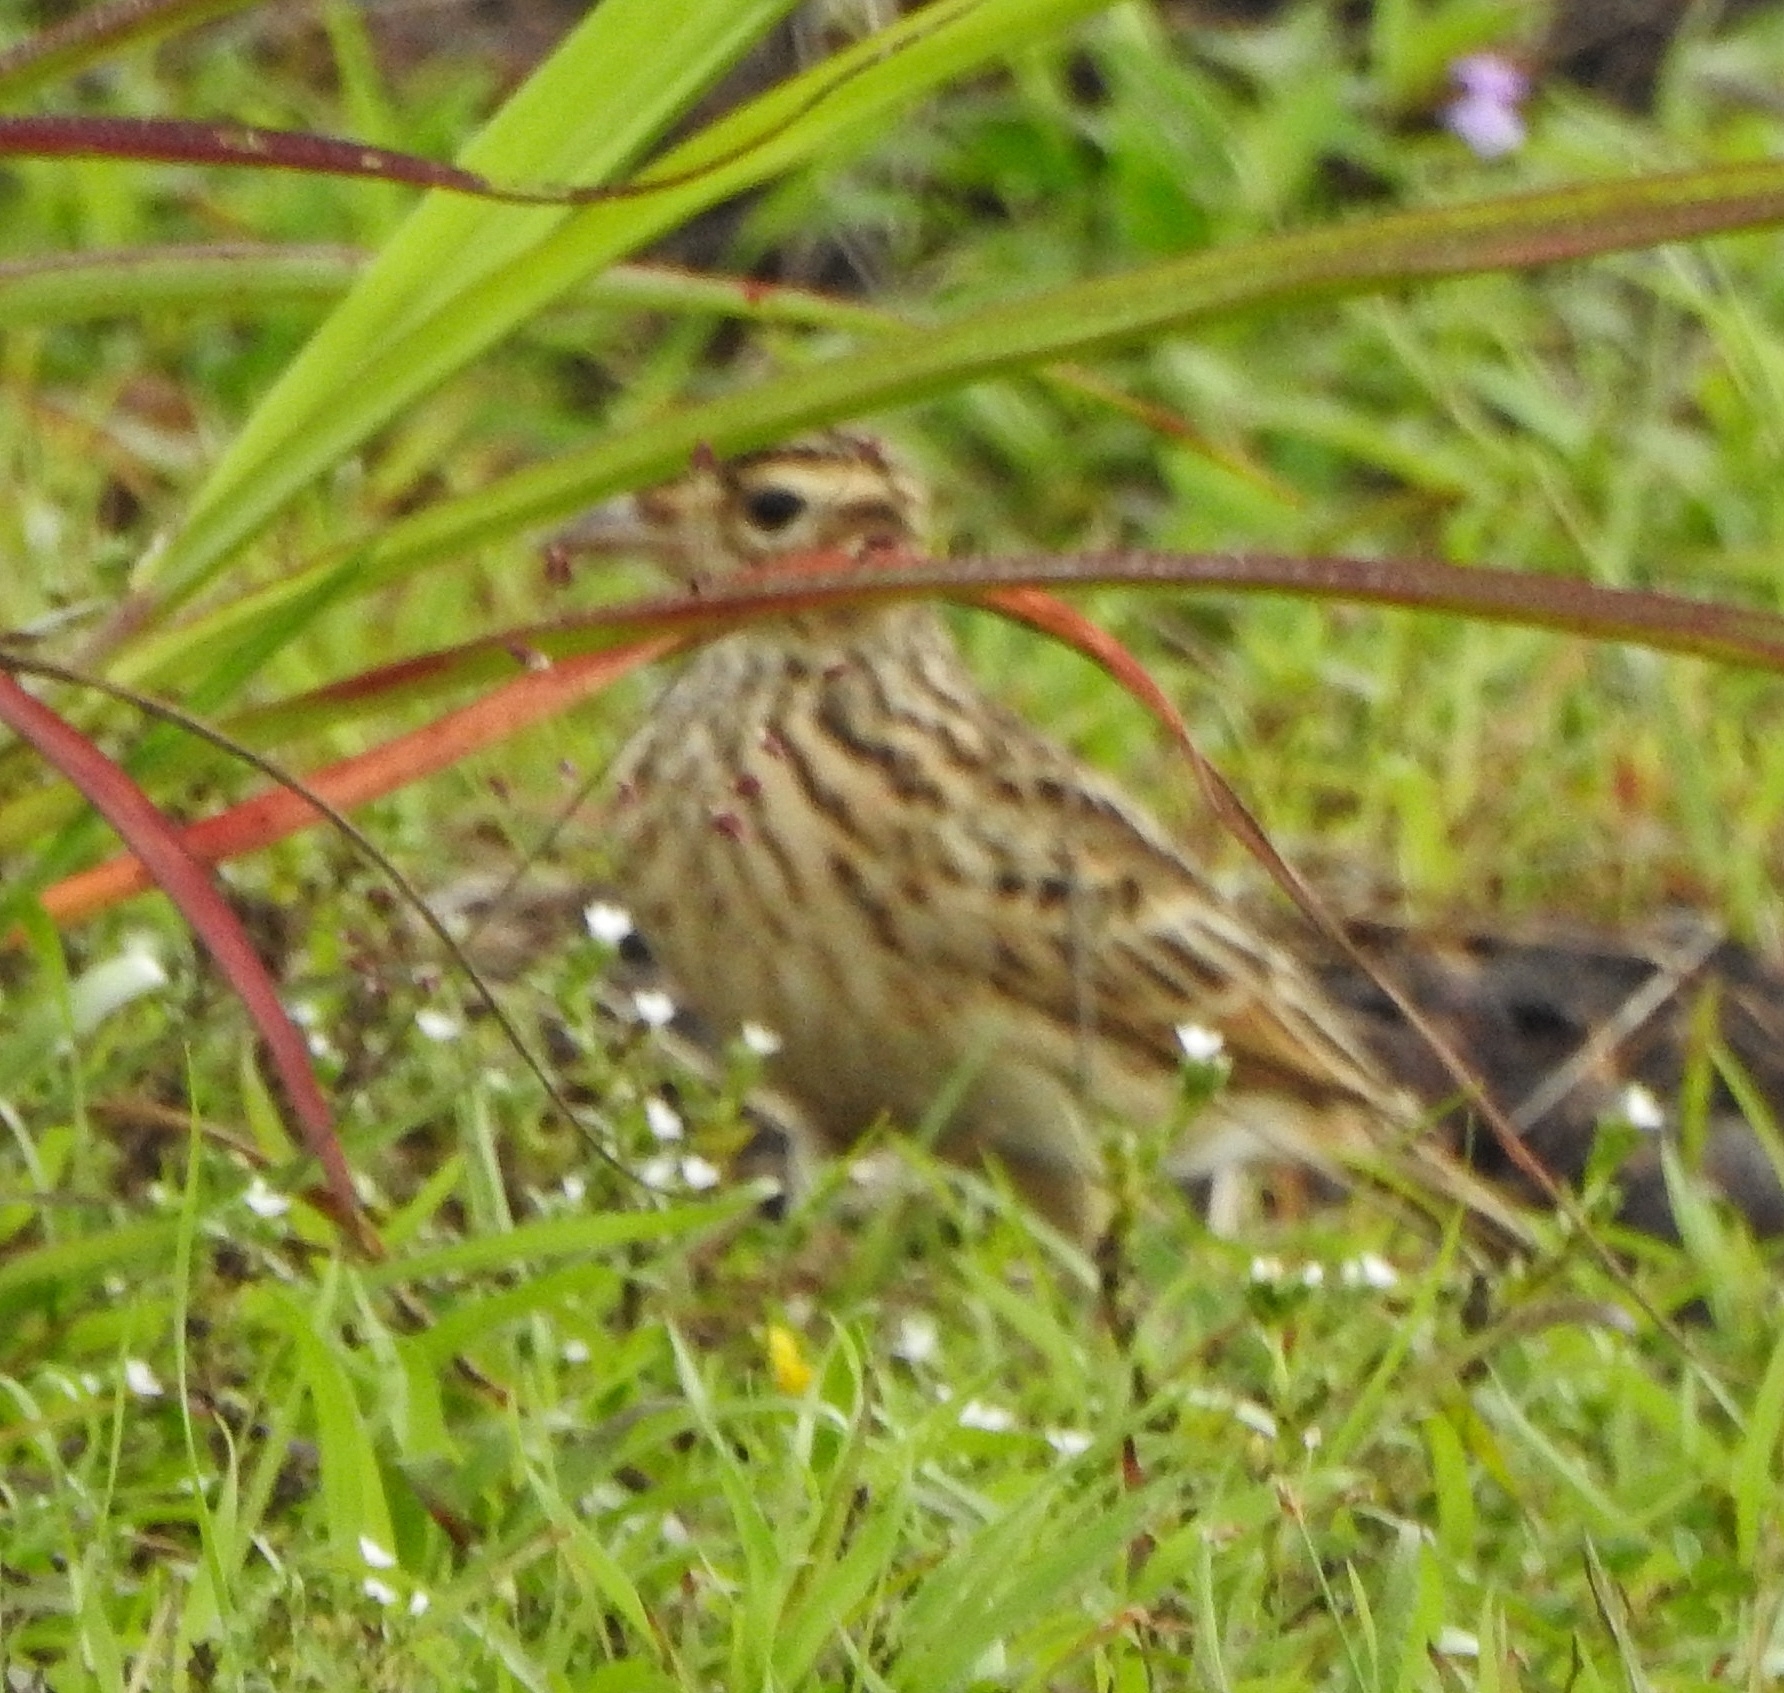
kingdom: Animalia
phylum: Chordata
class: Aves
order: Passeriformes
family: Alaudidae
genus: Alauda
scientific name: Alauda gulgula
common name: Oriental skylark
